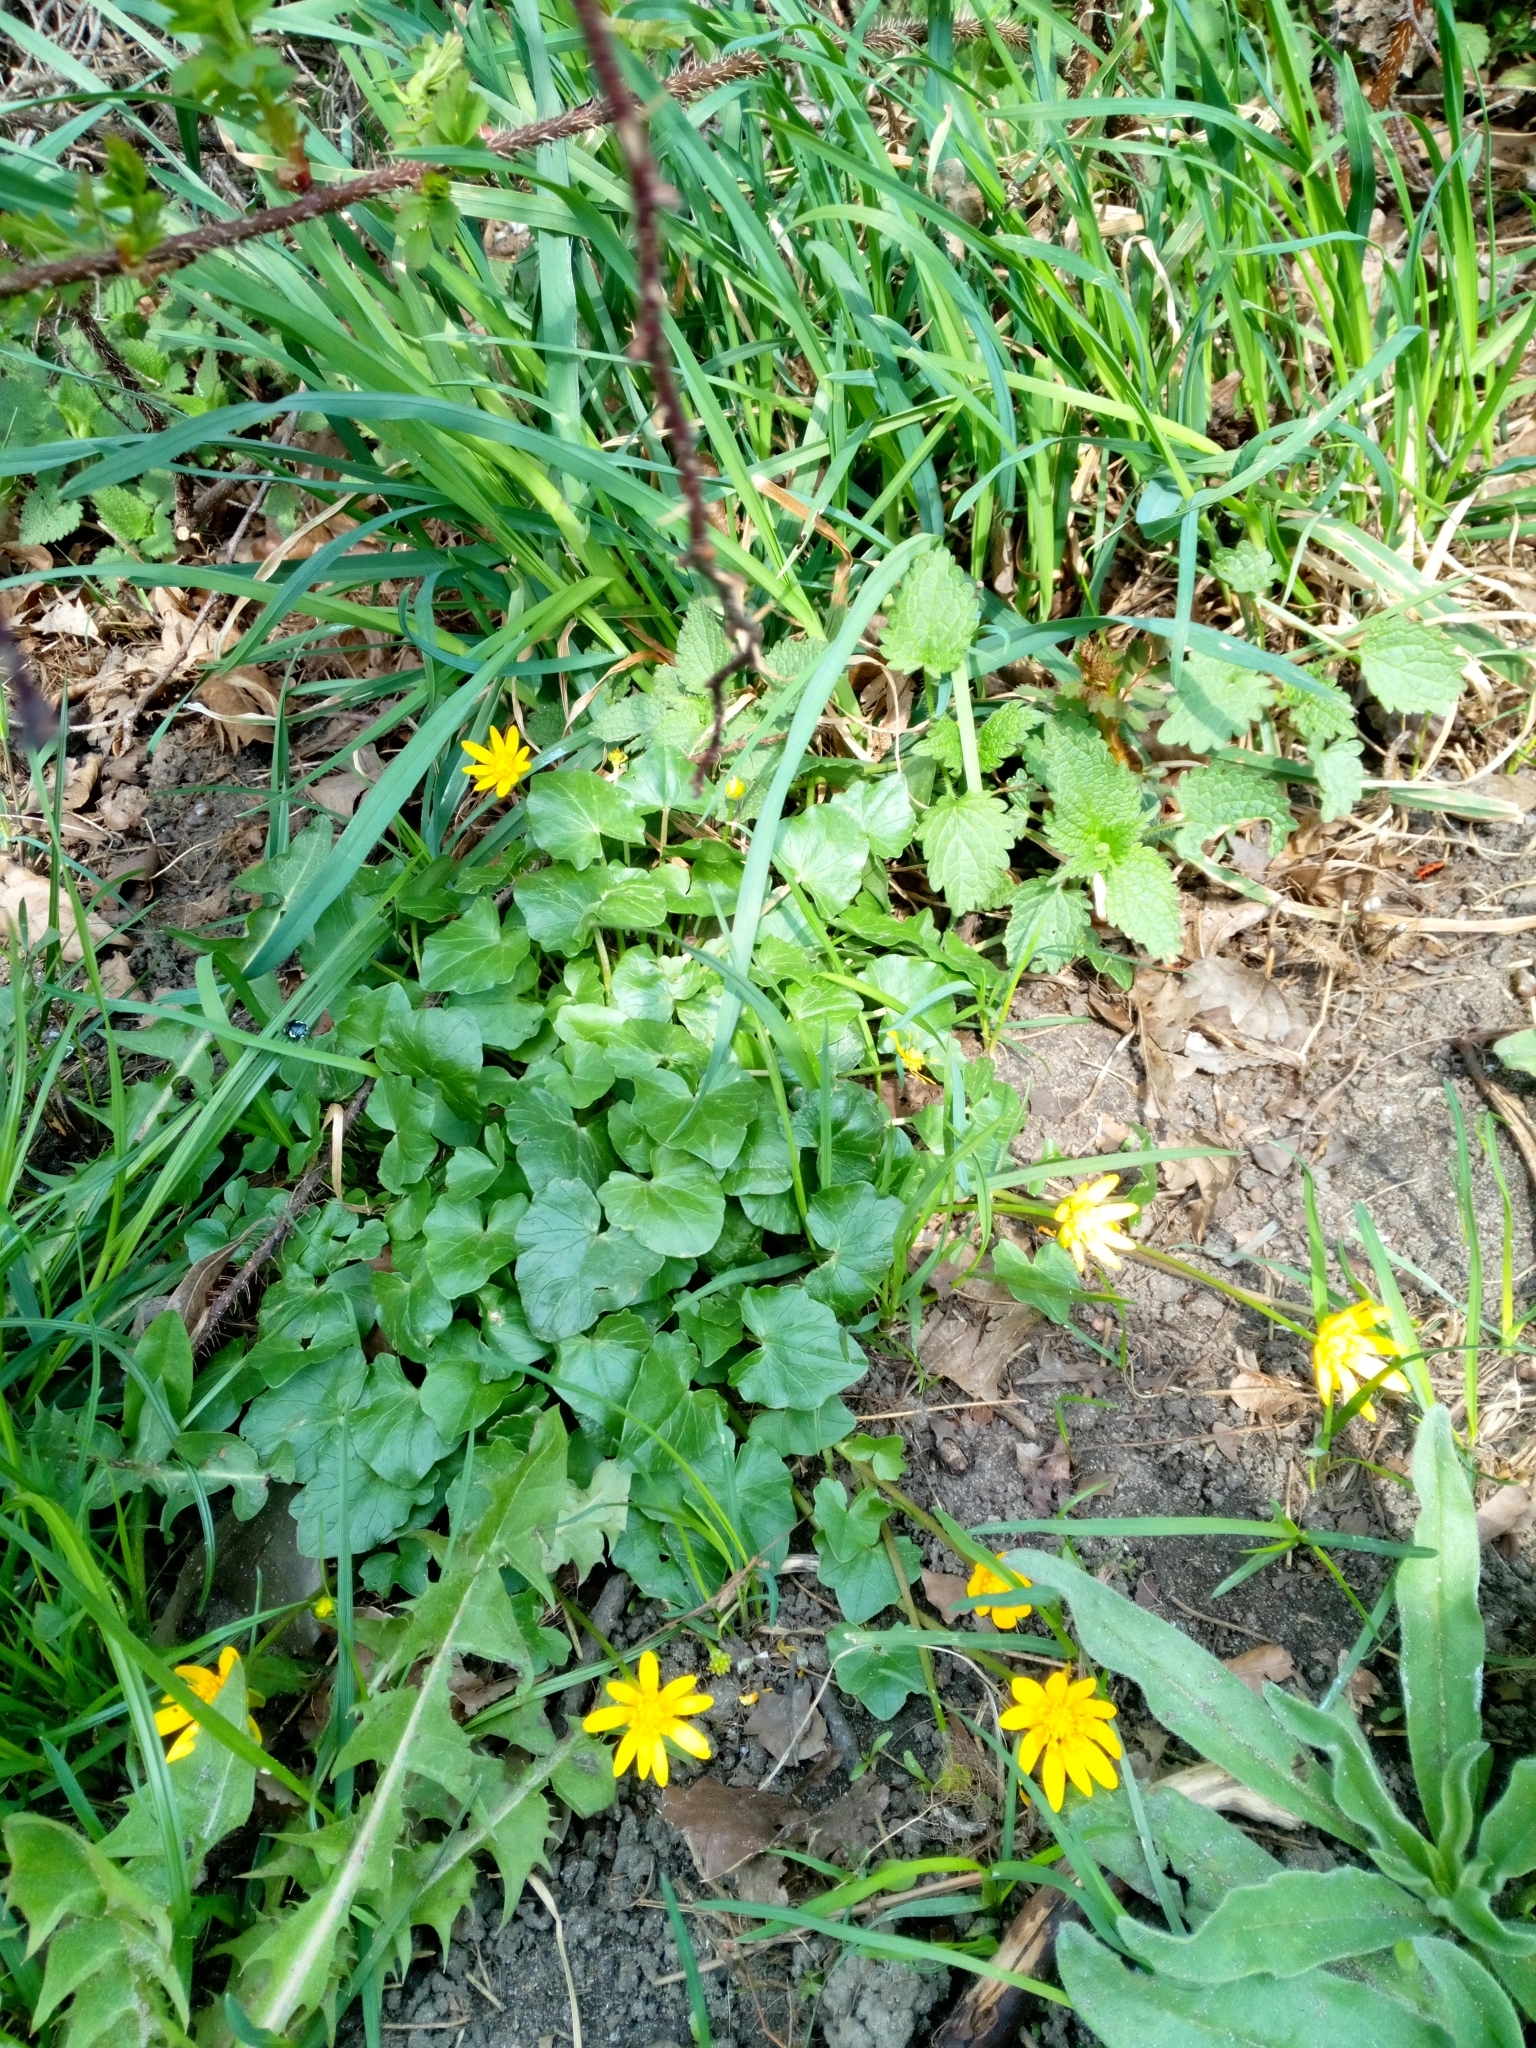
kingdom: Plantae
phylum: Tracheophyta
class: Magnoliopsida
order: Ranunculales
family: Ranunculaceae
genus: Ficaria
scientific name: Ficaria verna
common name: Lesser celandine
